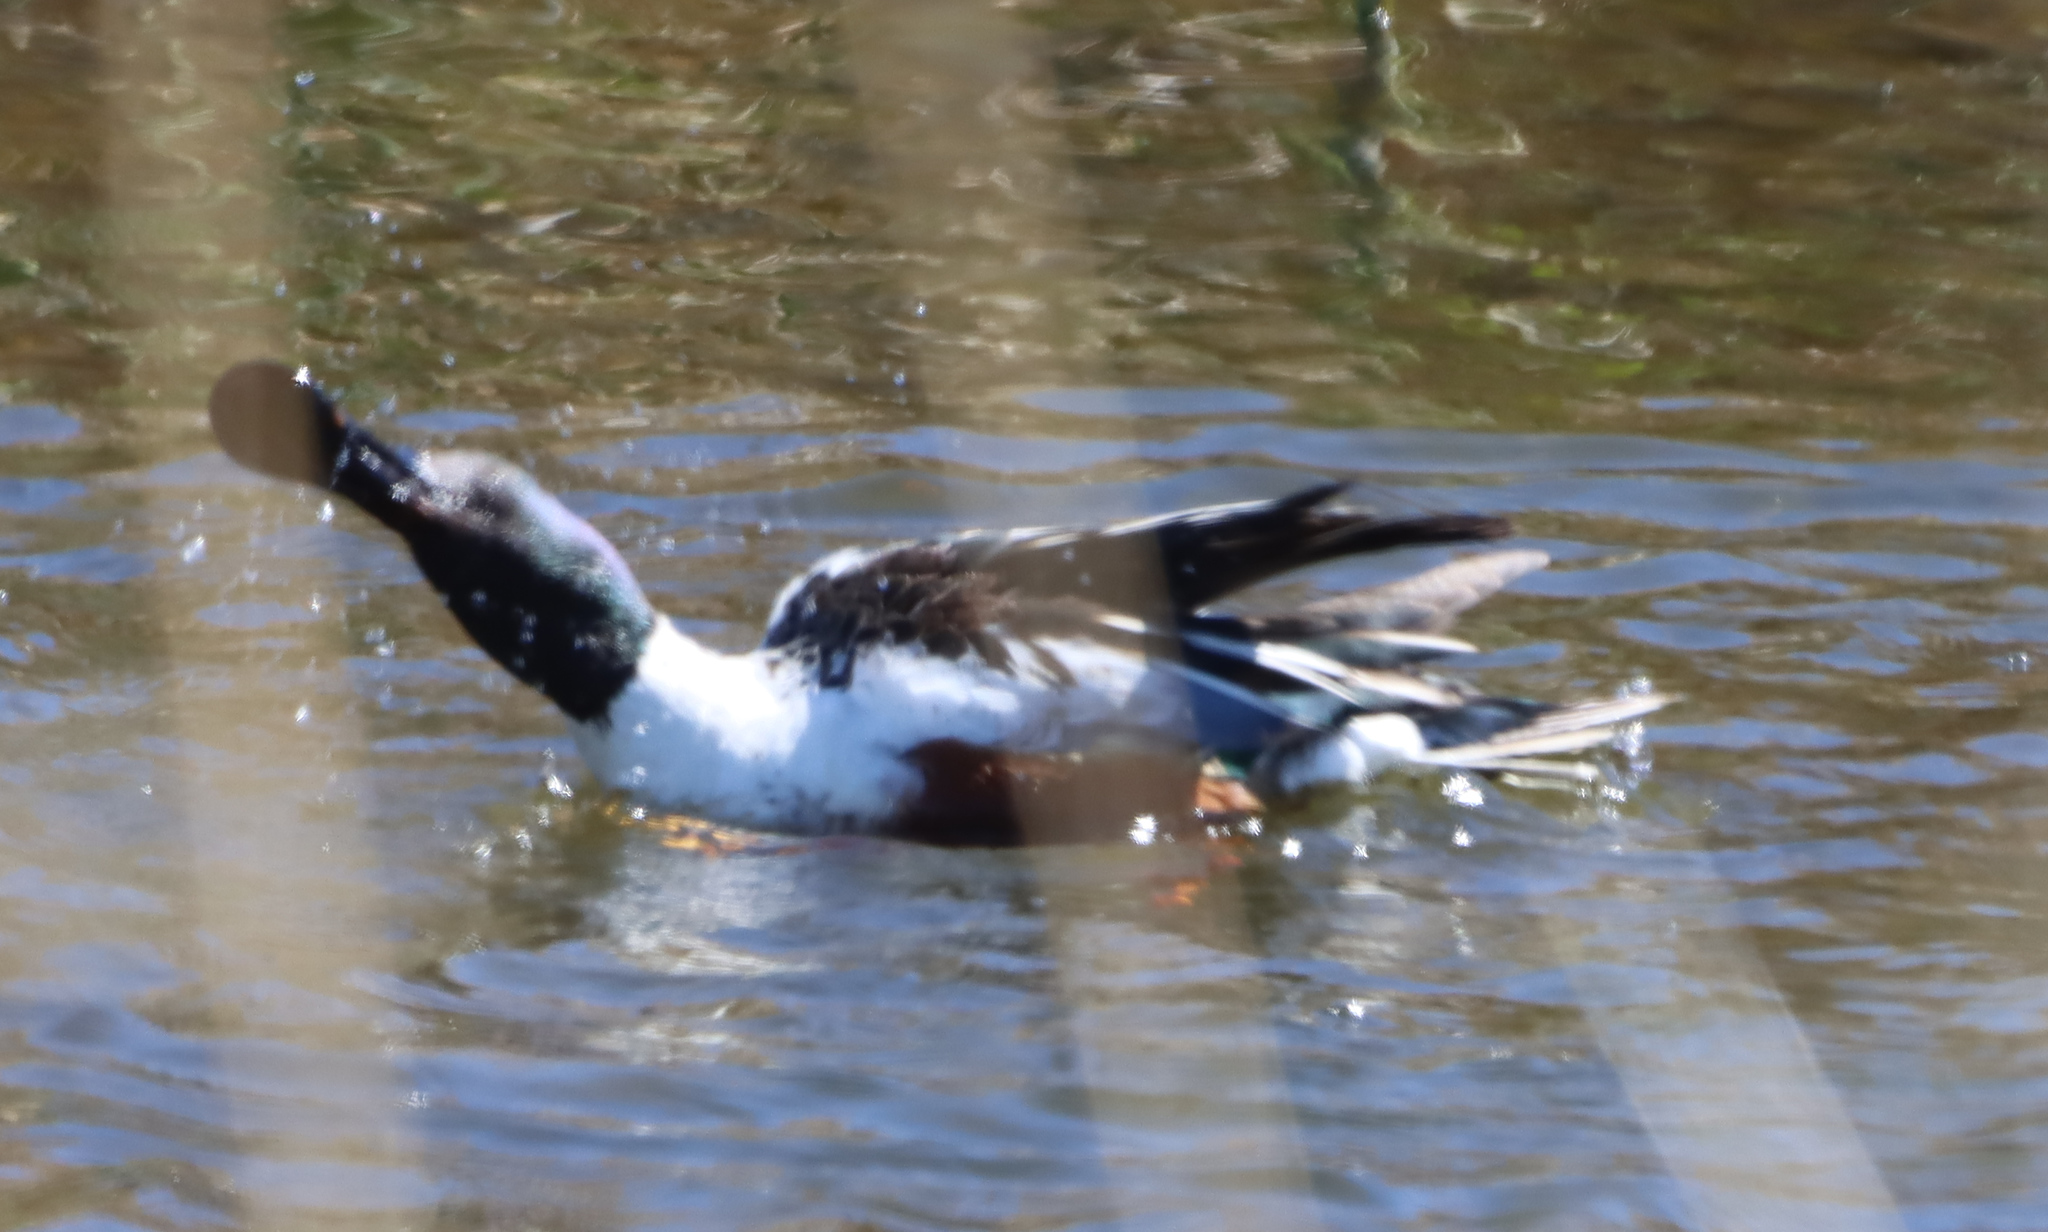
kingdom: Animalia
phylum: Chordata
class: Aves
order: Anseriformes
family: Anatidae
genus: Spatula
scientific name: Spatula clypeata
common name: Northern shoveler
